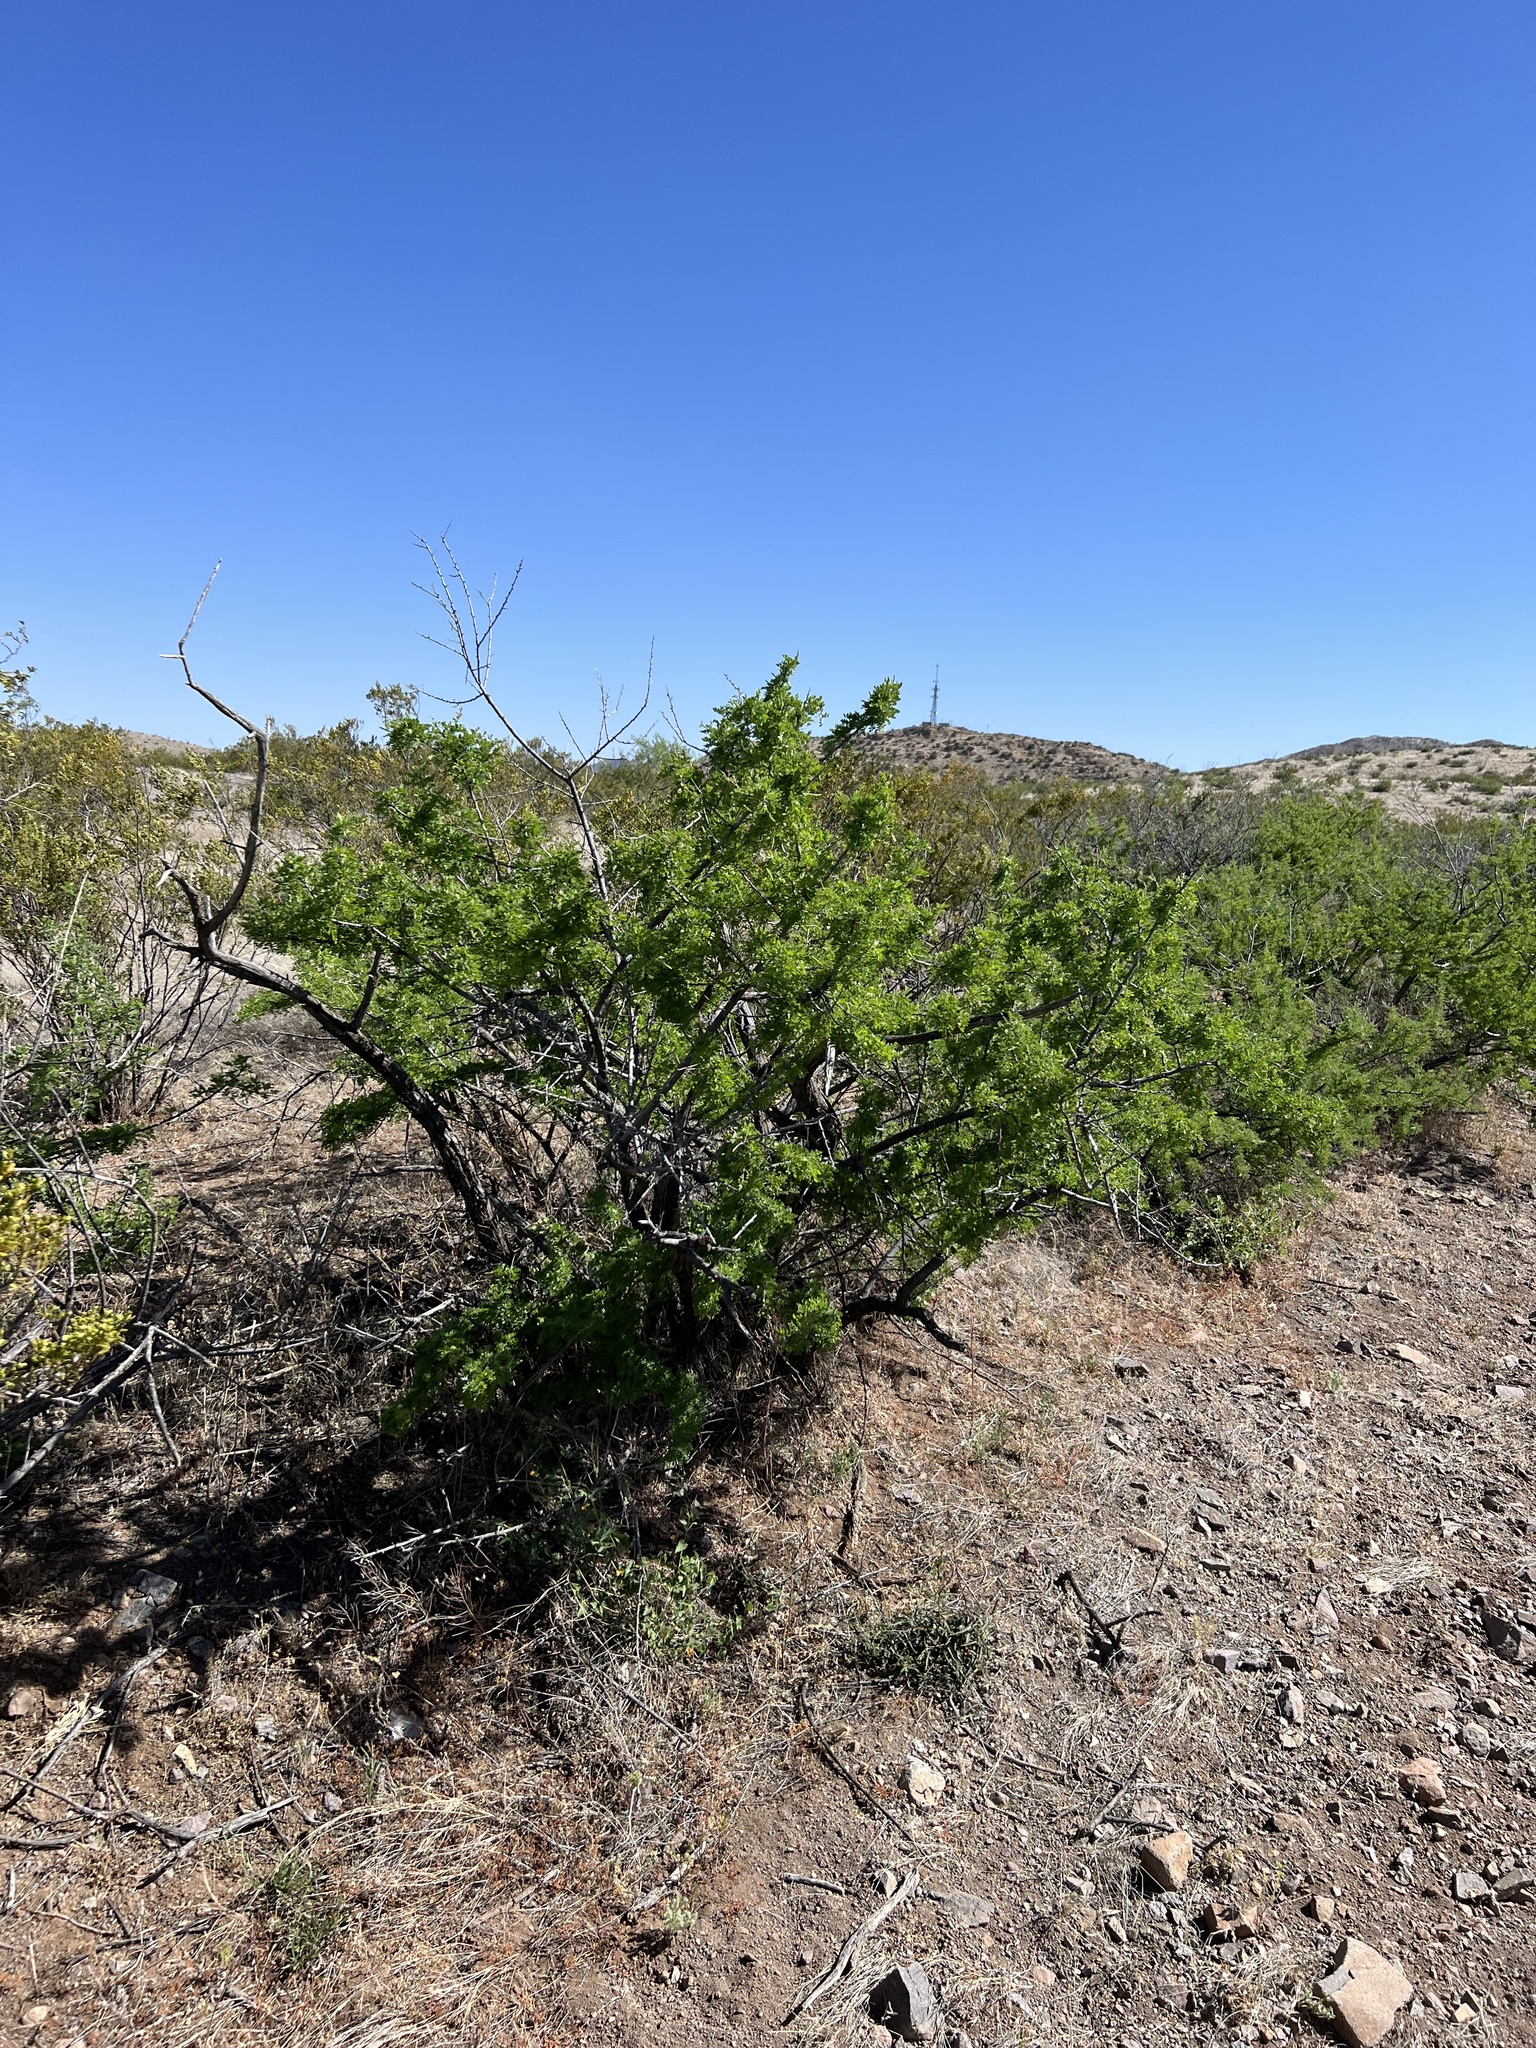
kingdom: Plantae
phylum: Tracheophyta
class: Magnoliopsida
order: Fabales
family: Fabaceae
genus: Senegalia
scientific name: Senegalia greggii
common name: Texas-mimosa
